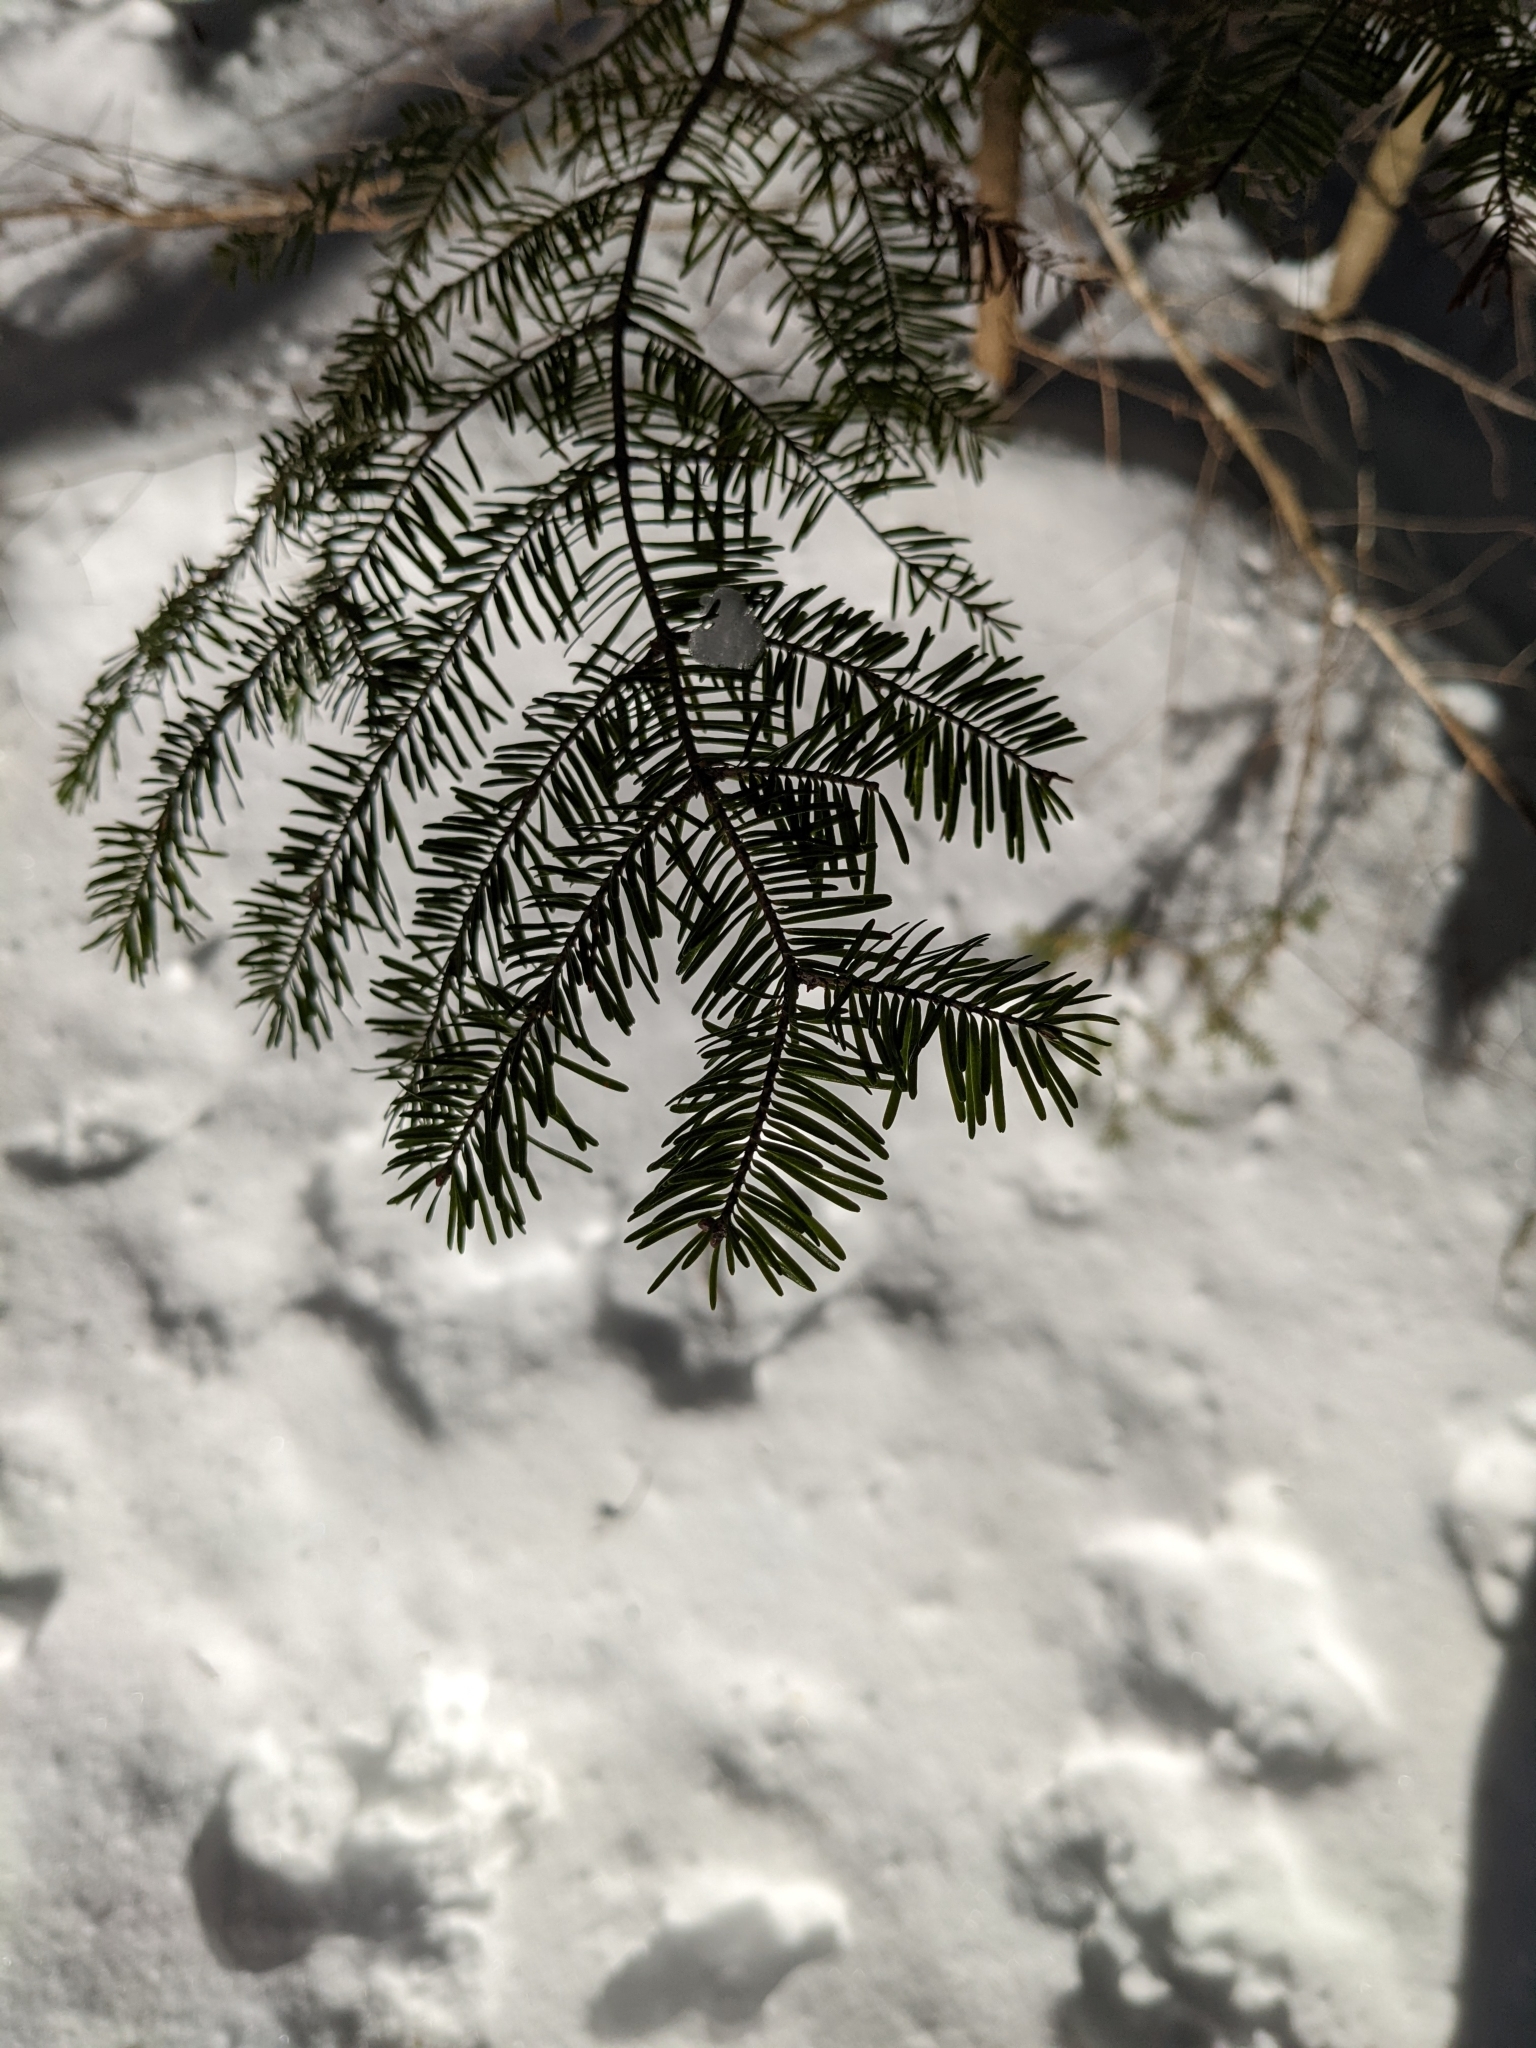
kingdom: Plantae
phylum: Tracheophyta
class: Pinopsida
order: Pinales
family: Pinaceae
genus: Abies
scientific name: Abies balsamea
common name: Balsam fir
